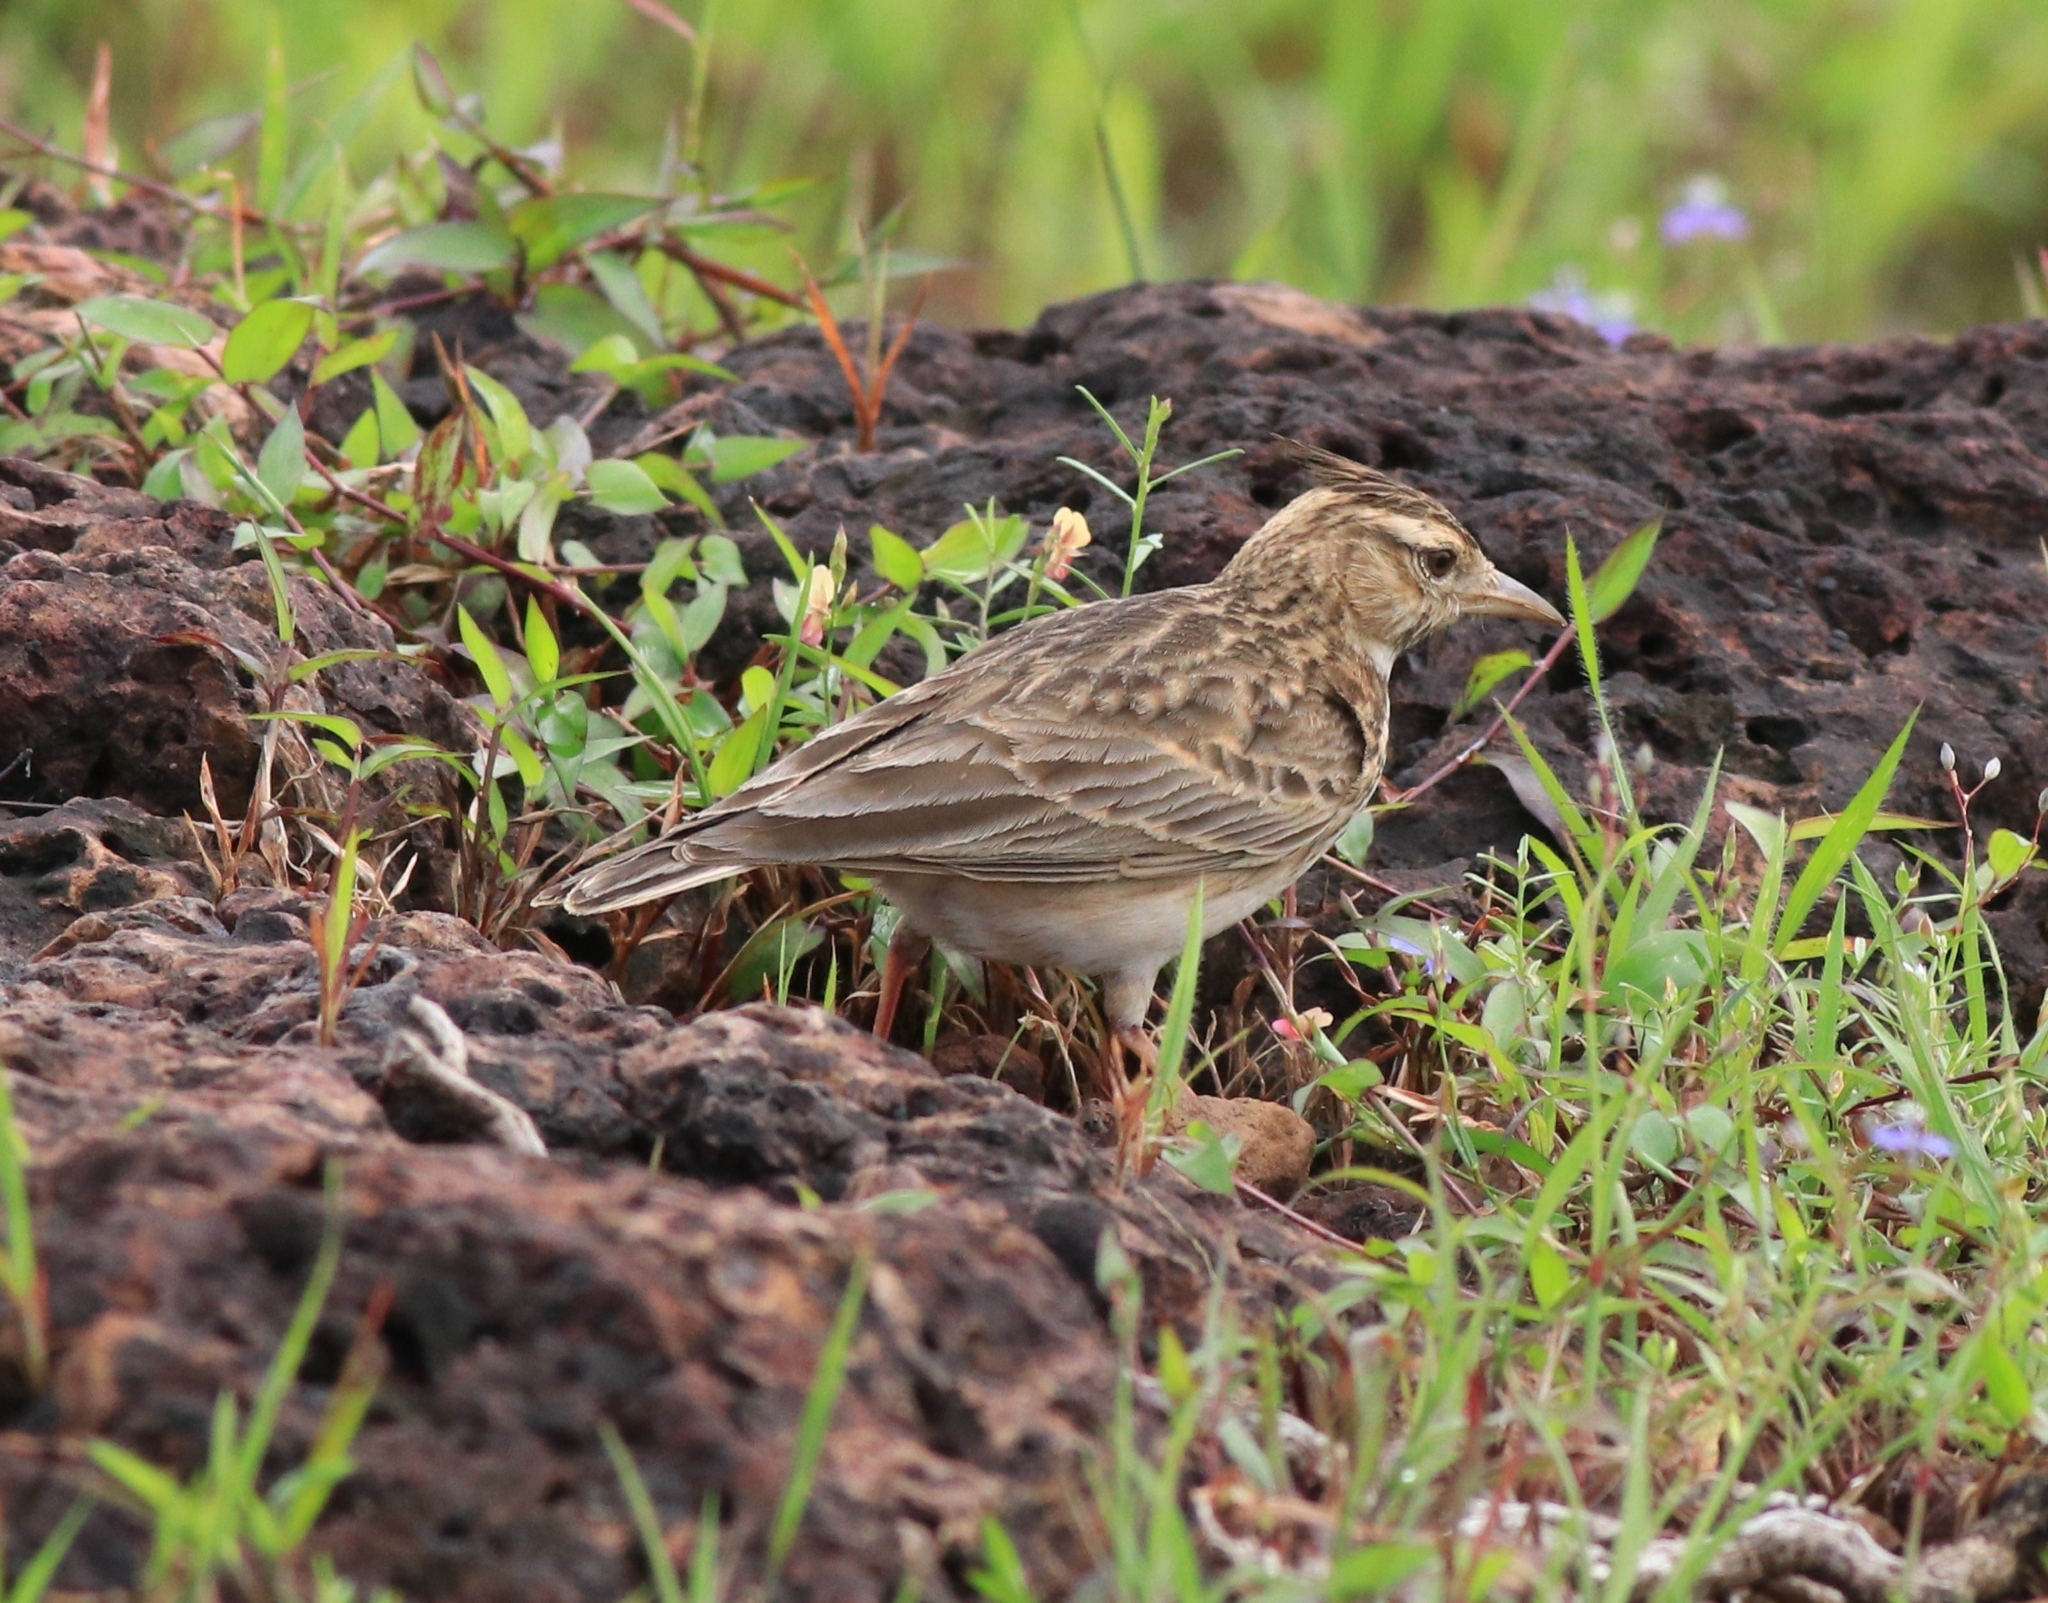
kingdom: Animalia
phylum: Chordata
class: Aves
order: Passeriformes
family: Alaudidae
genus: Galerida
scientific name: Galerida malabarica
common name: Malabar lark
